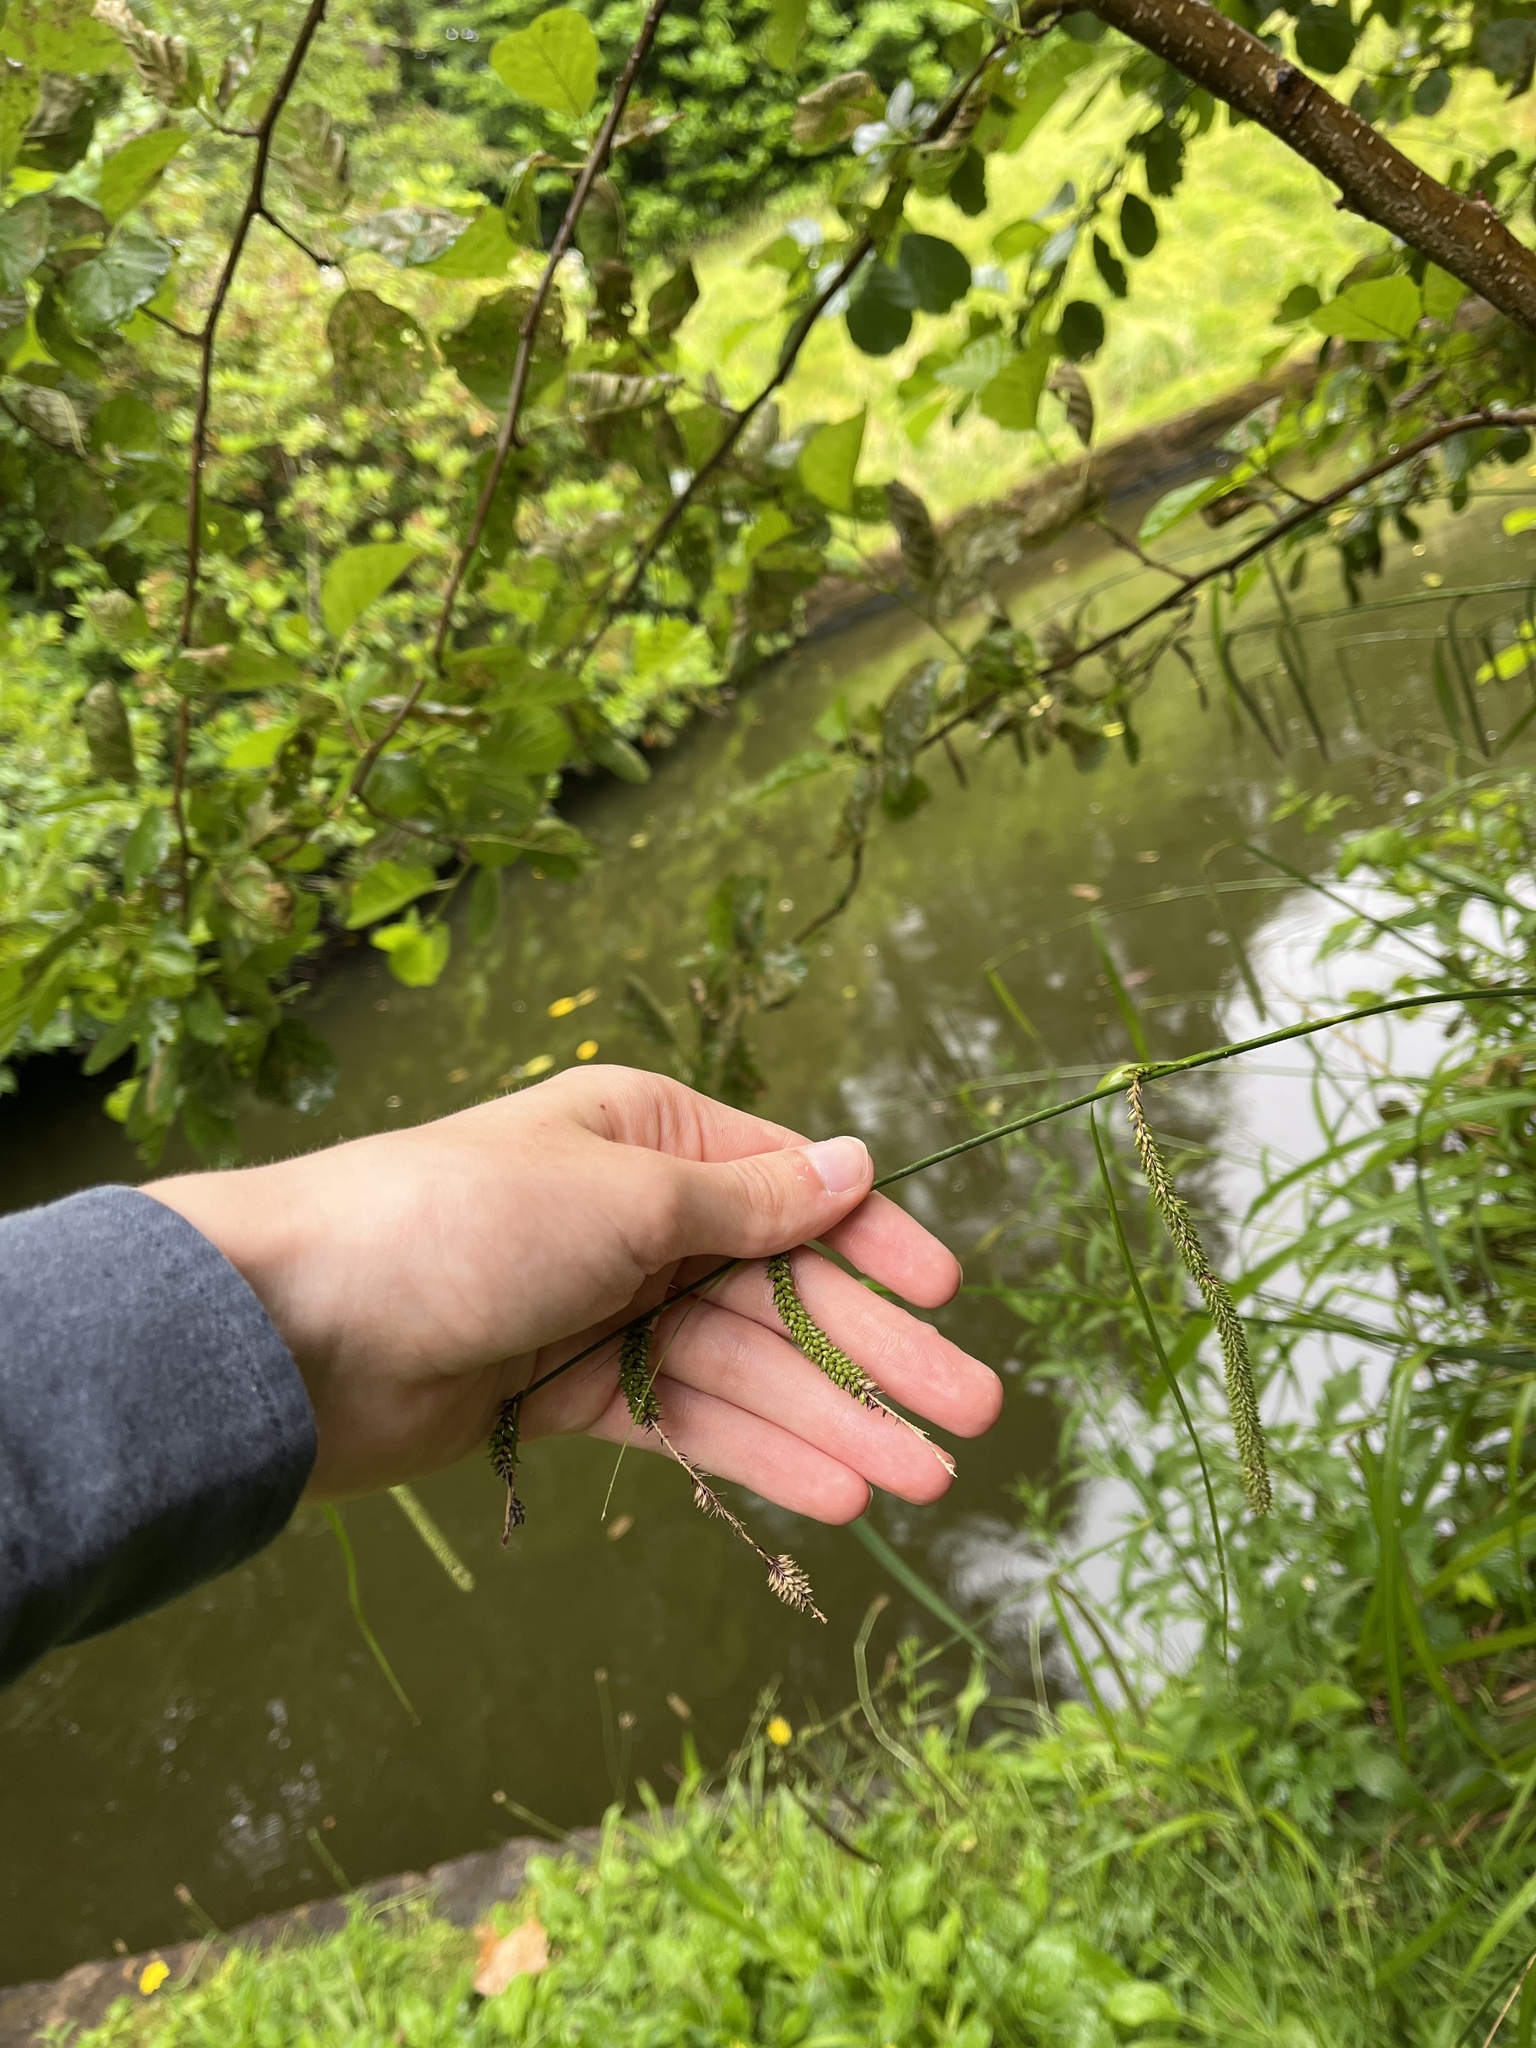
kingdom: Plantae
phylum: Tracheophyta
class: Liliopsida
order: Poales
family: Cyperaceae
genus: Carex
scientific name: Carex pendula
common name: Pendulous sedge
